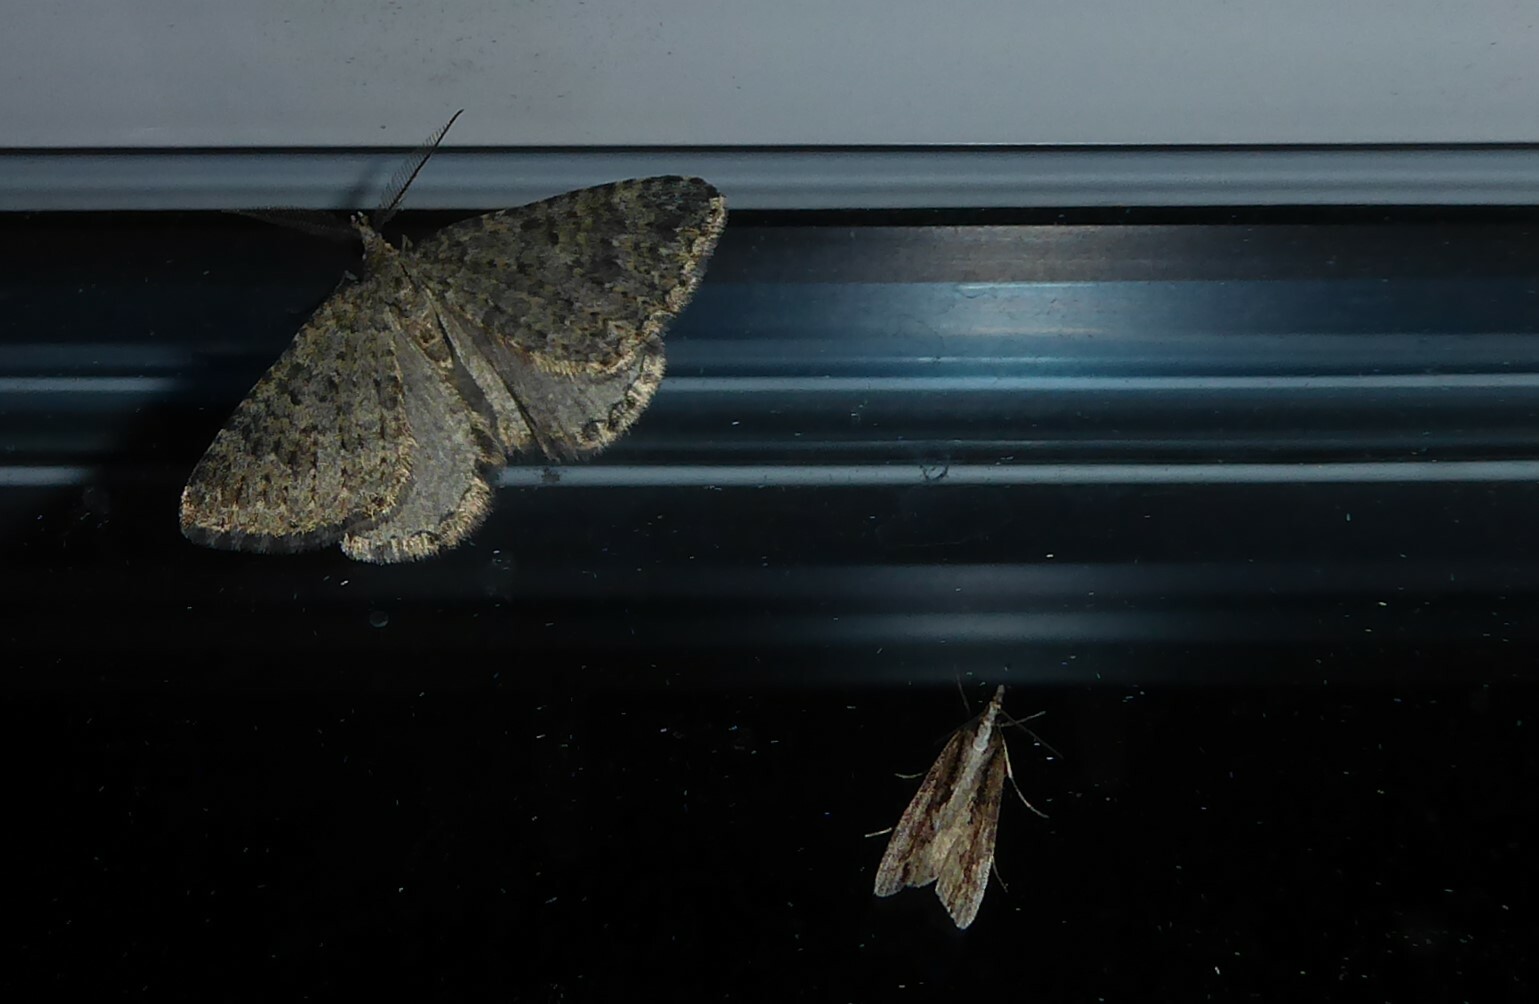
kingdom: Animalia
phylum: Arthropoda
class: Insecta
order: Lepidoptera
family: Crambidae
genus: Eudonia
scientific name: Eudonia steropaea
